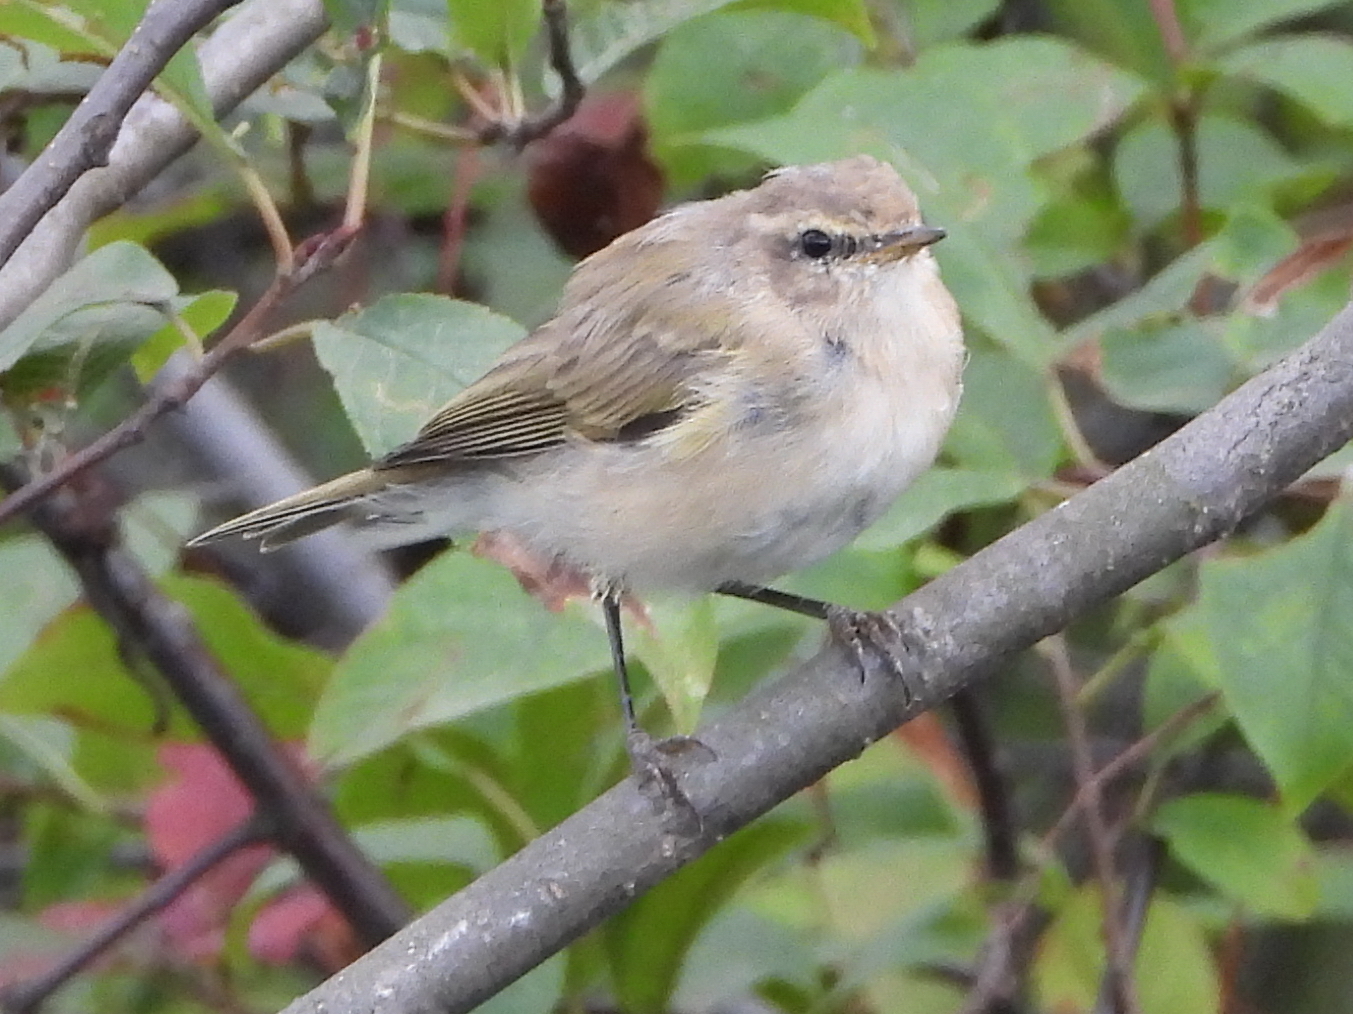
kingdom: Animalia
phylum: Chordata
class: Aves
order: Passeriformes
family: Phylloscopidae
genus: Phylloscopus
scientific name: Phylloscopus collybita
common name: Common chiffchaff
